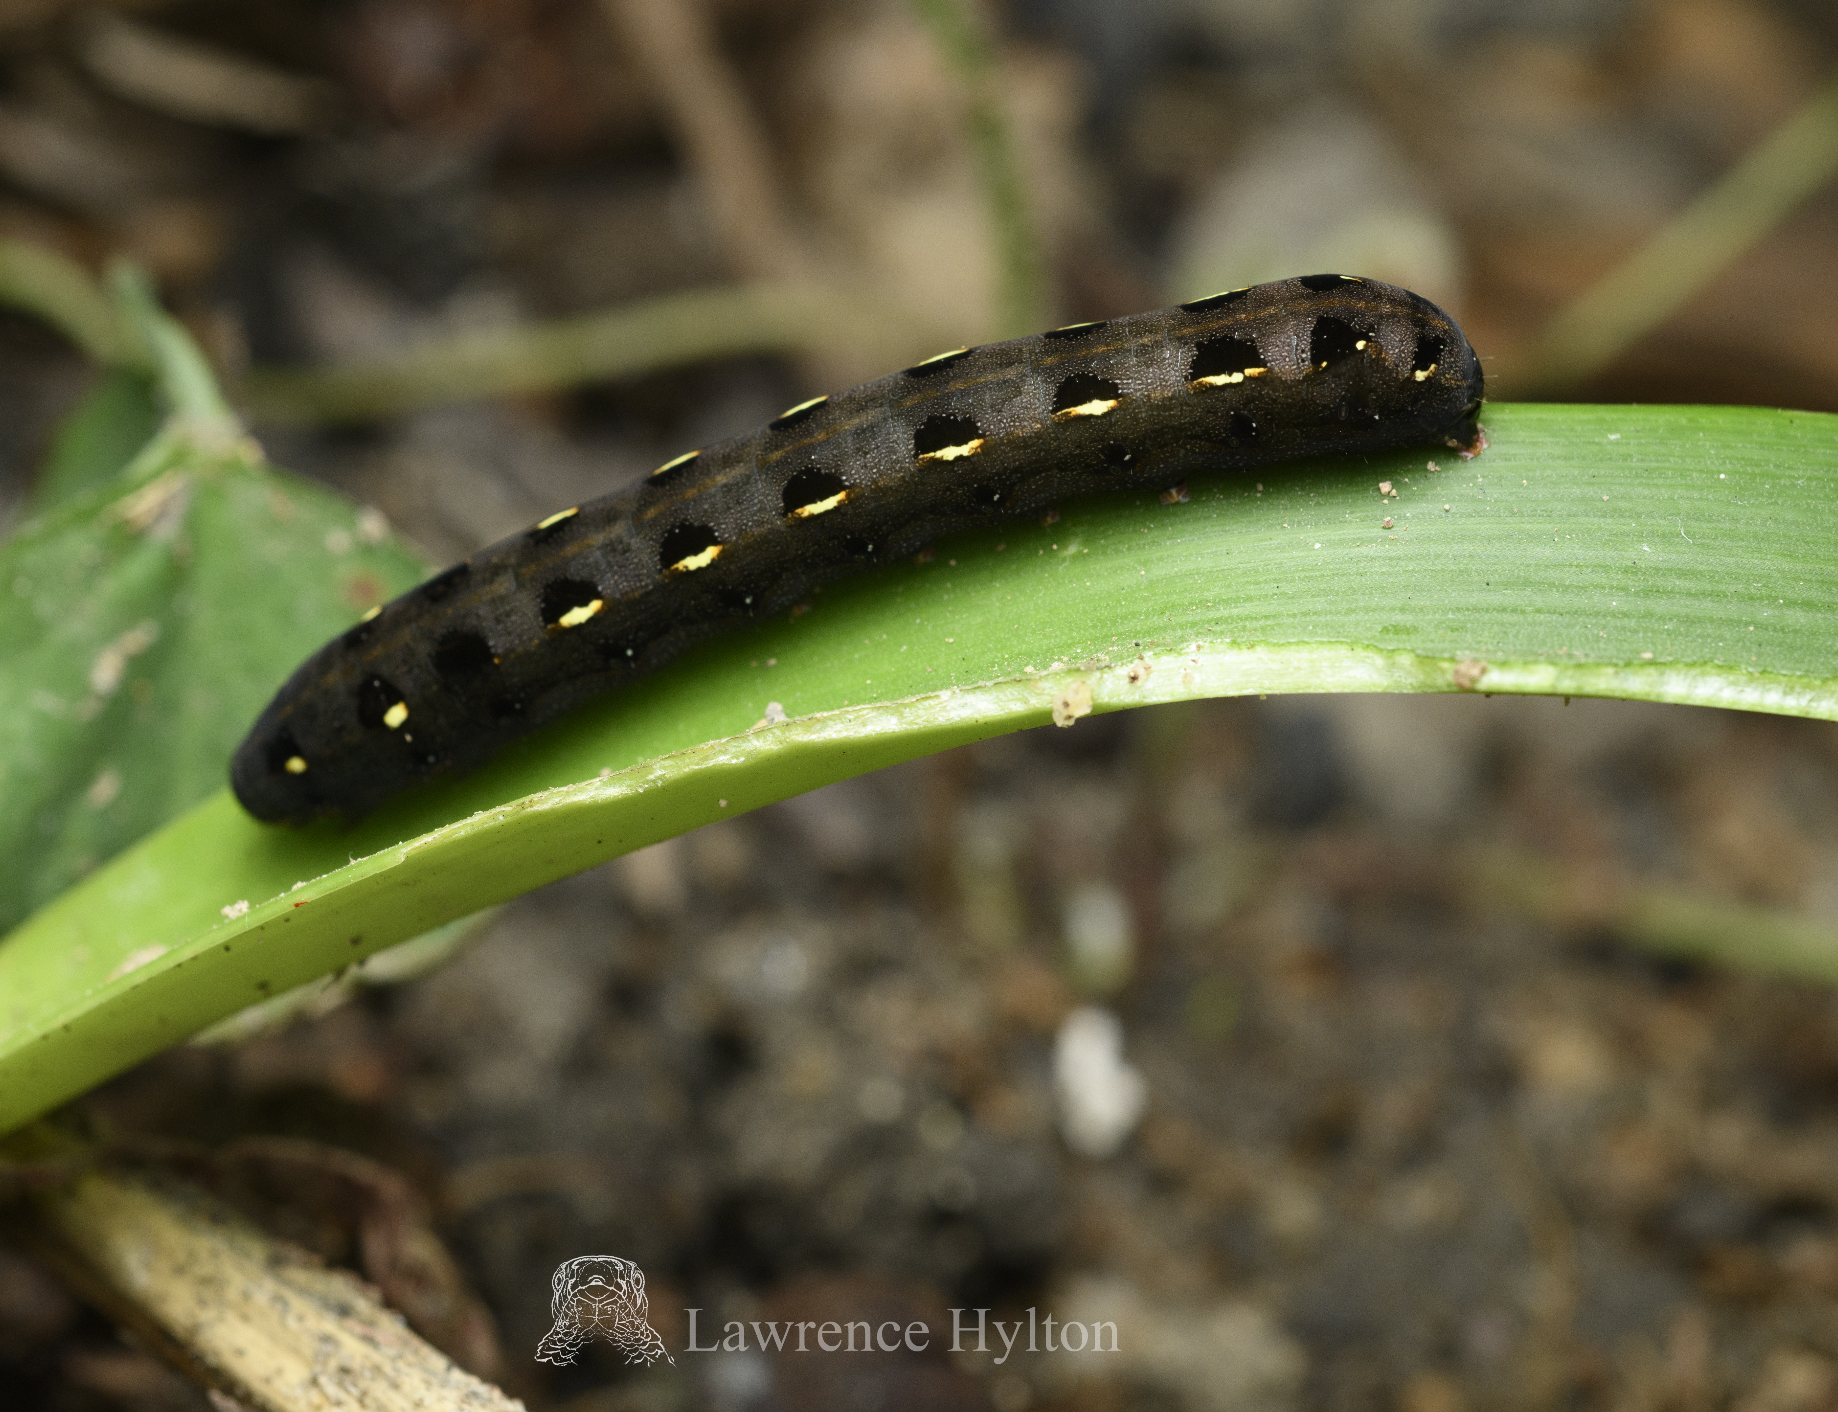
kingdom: Animalia
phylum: Arthropoda
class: Insecta
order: Lepidoptera
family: Noctuidae
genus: Spodoptera
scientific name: Spodoptera litura
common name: Asian cotton leafworm
